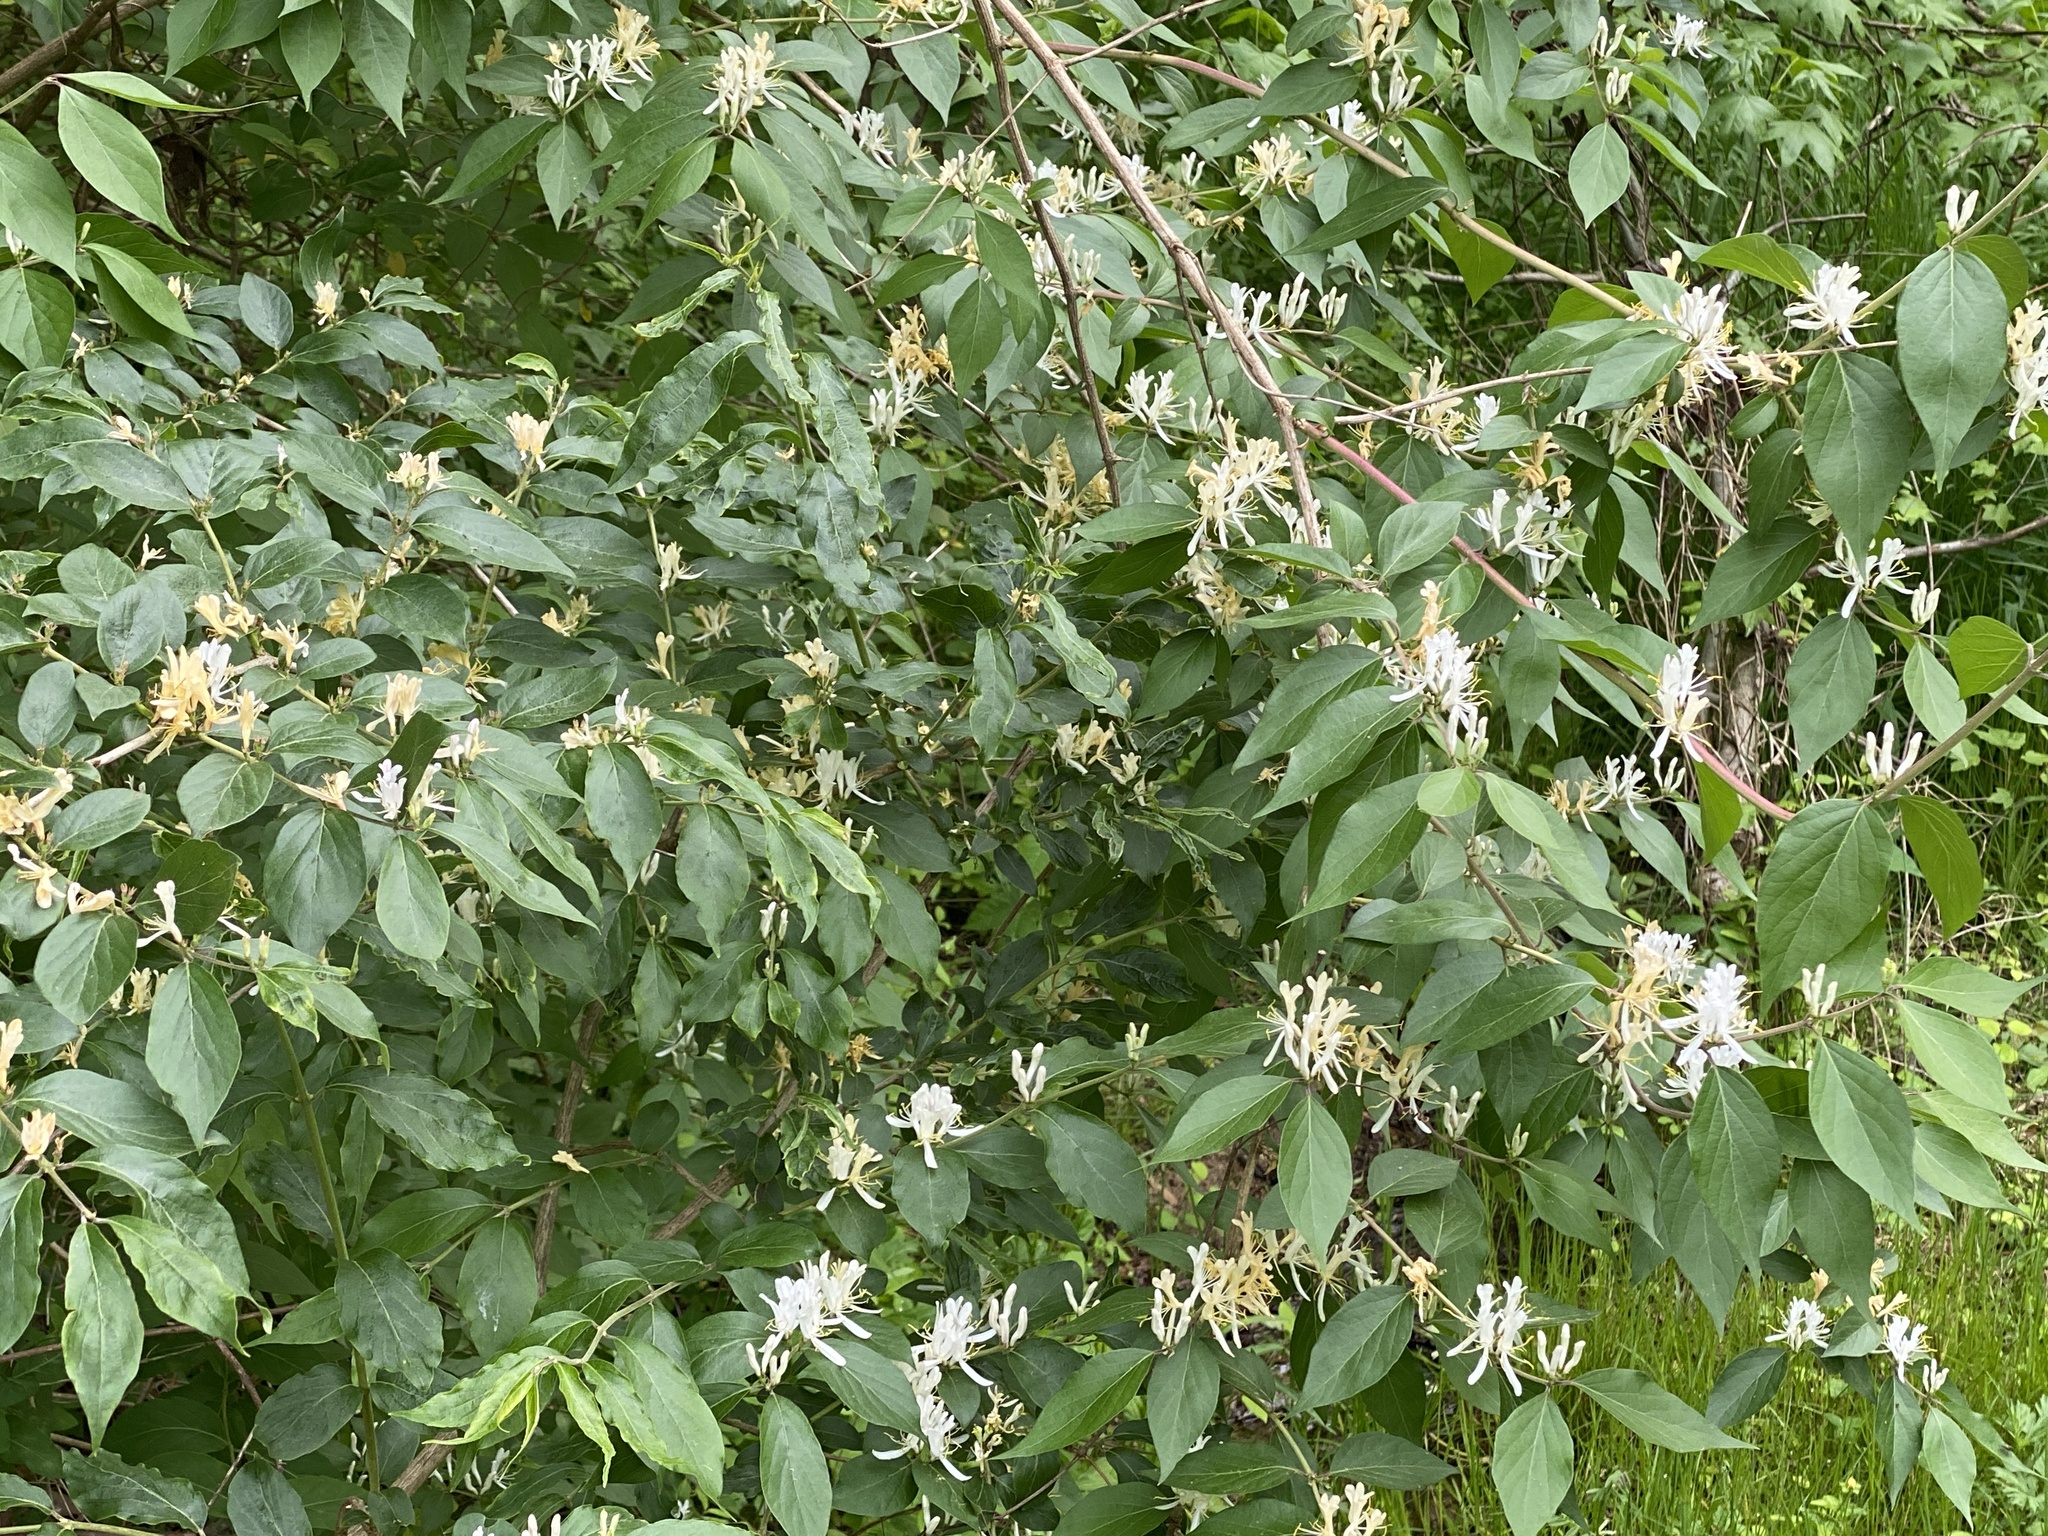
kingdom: Plantae
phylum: Tracheophyta
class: Magnoliopsida
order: Dipsacales
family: Caprifoliaceae
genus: Lonicera
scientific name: Lonicera maackii
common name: Amur honeysuckle
